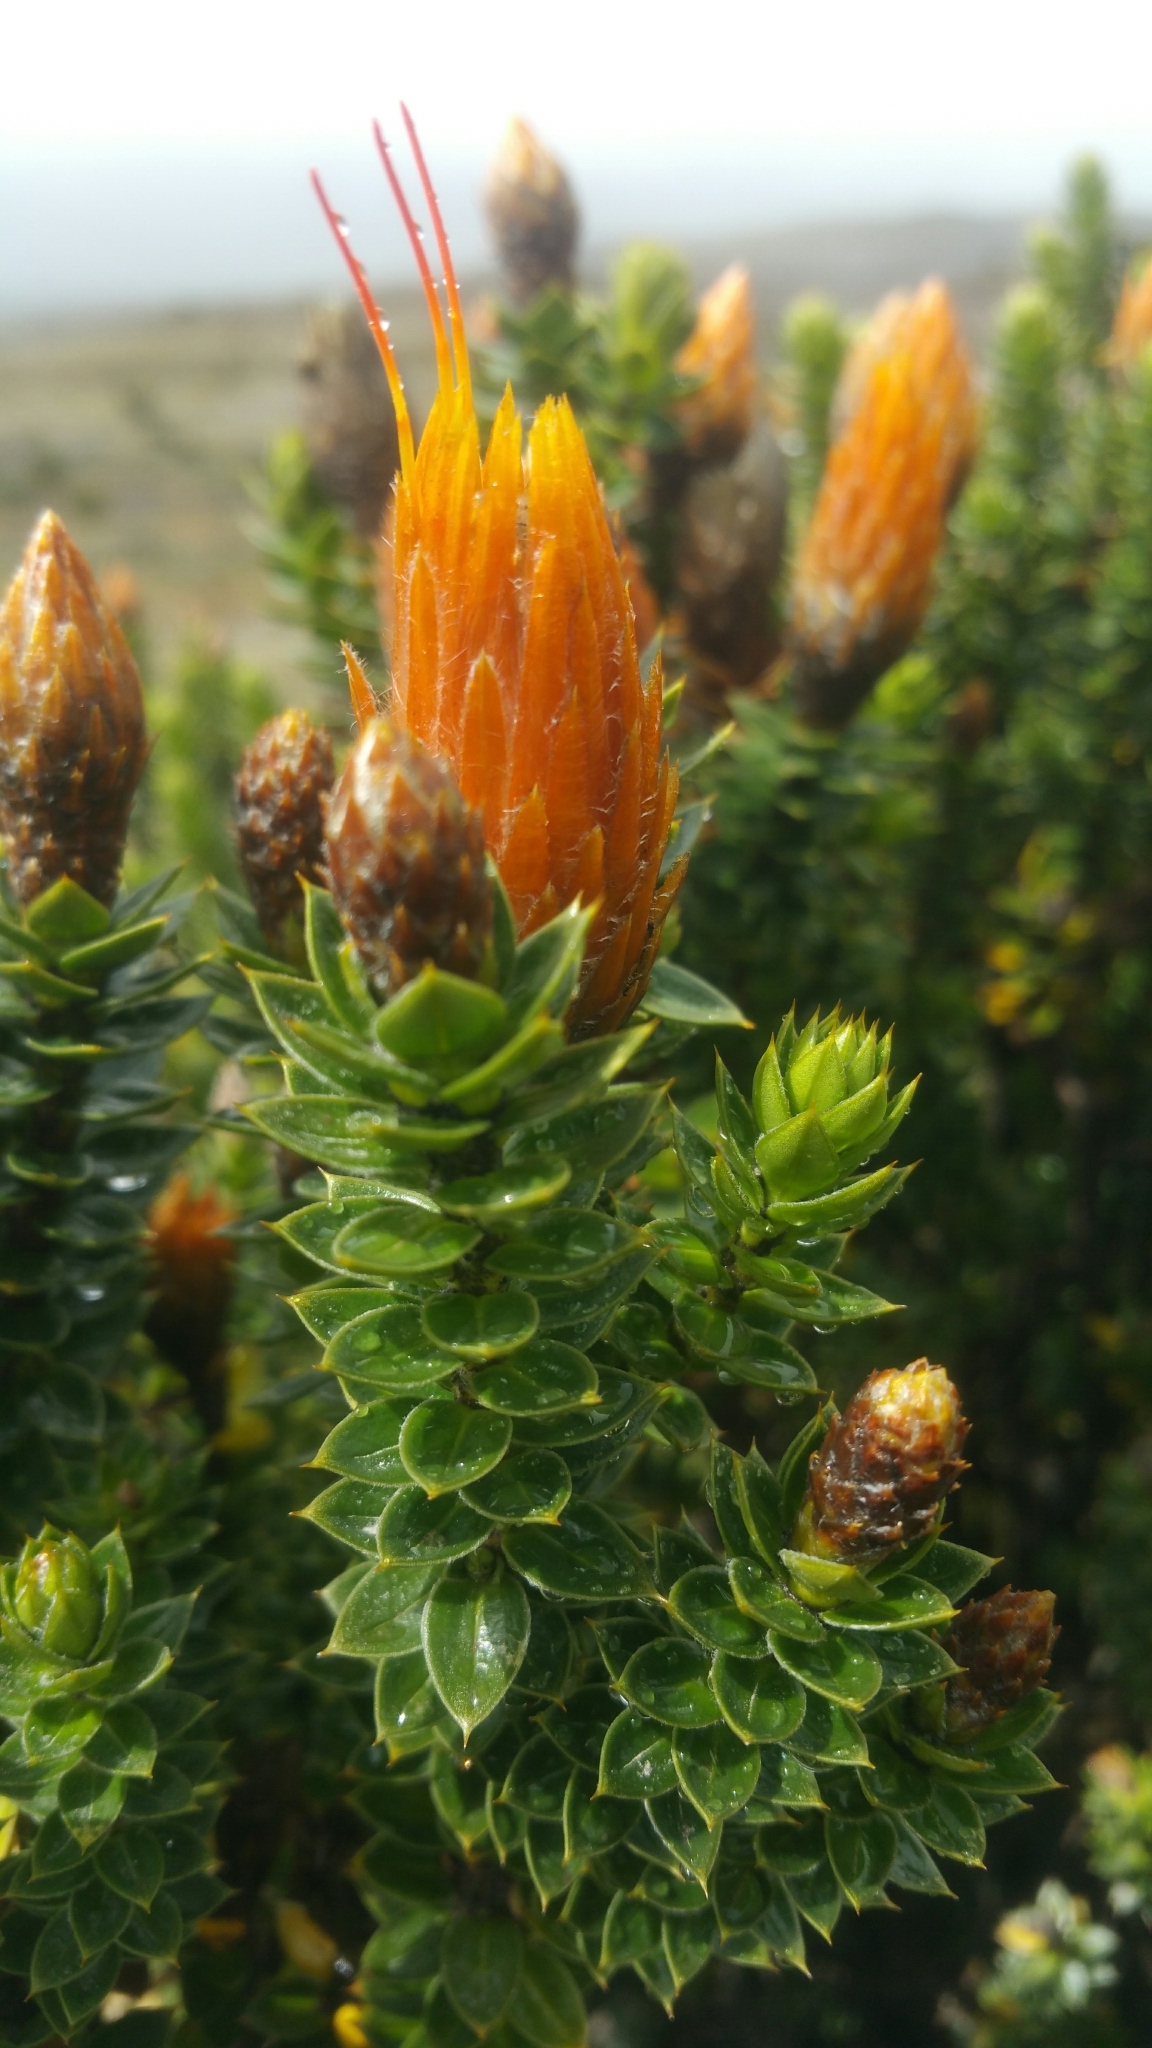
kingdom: Plantae
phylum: Tracheophyta
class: Magnoliopsida
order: Asterales
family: Asteraceae
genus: Chuquiraga
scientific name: Chuquiraga jussieui
